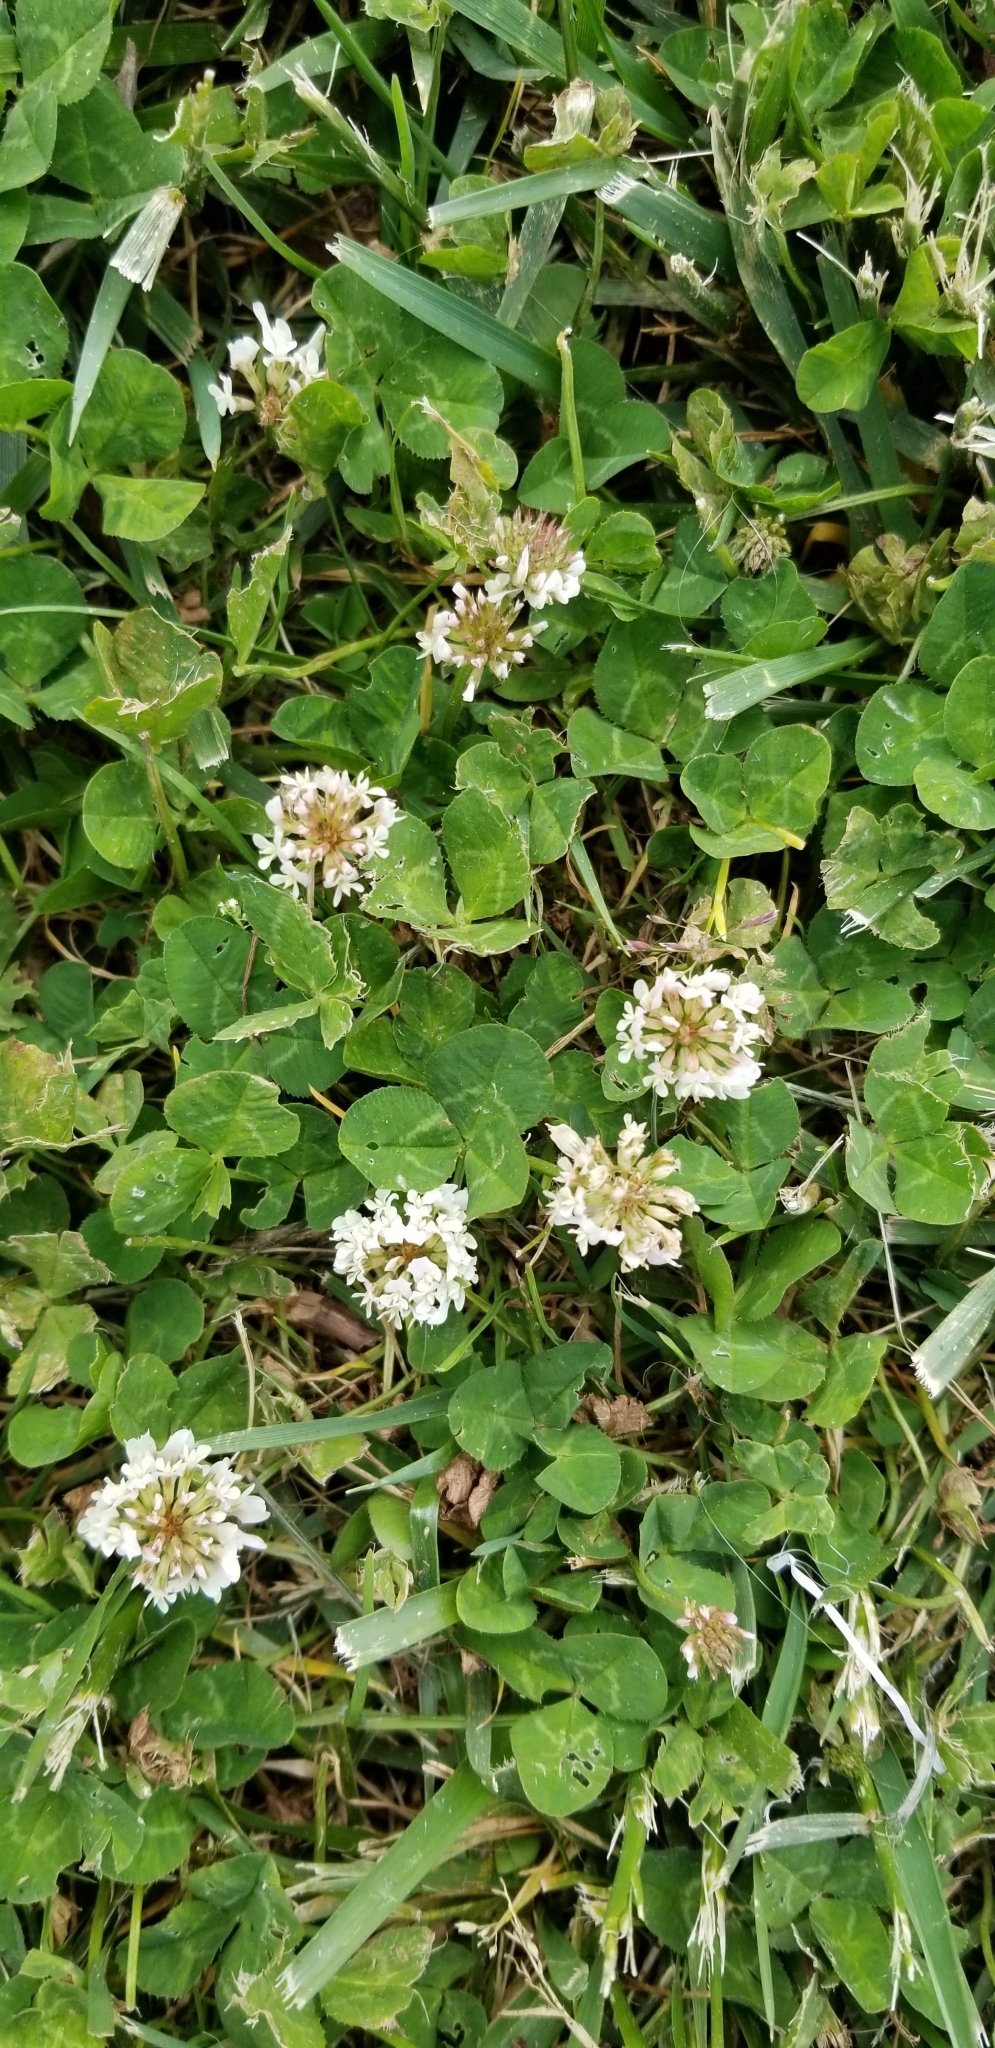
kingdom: Plantae
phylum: Tracheophyta
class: Magnoliopsida
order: Fabales
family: Fabaceae
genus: Trifolium
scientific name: Trifolium repens
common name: White clover
